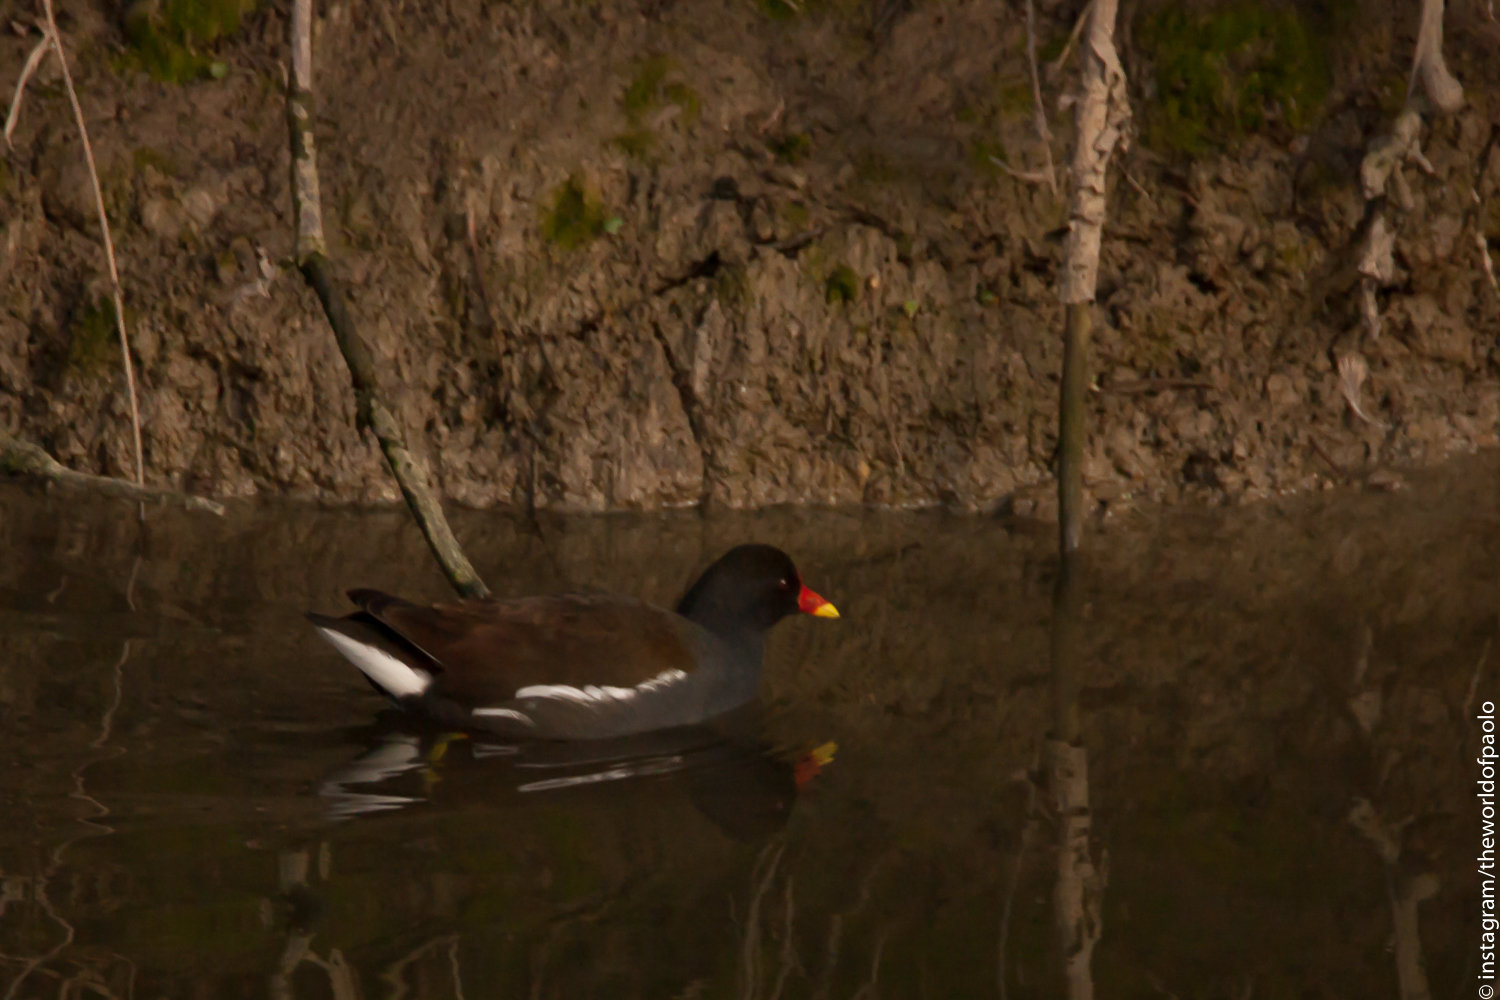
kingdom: Animalia
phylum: Chordata
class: Aves
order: Gruiformes
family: Rallidae
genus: Gallinula
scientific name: Gallinula chloropus
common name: Common moorhen
